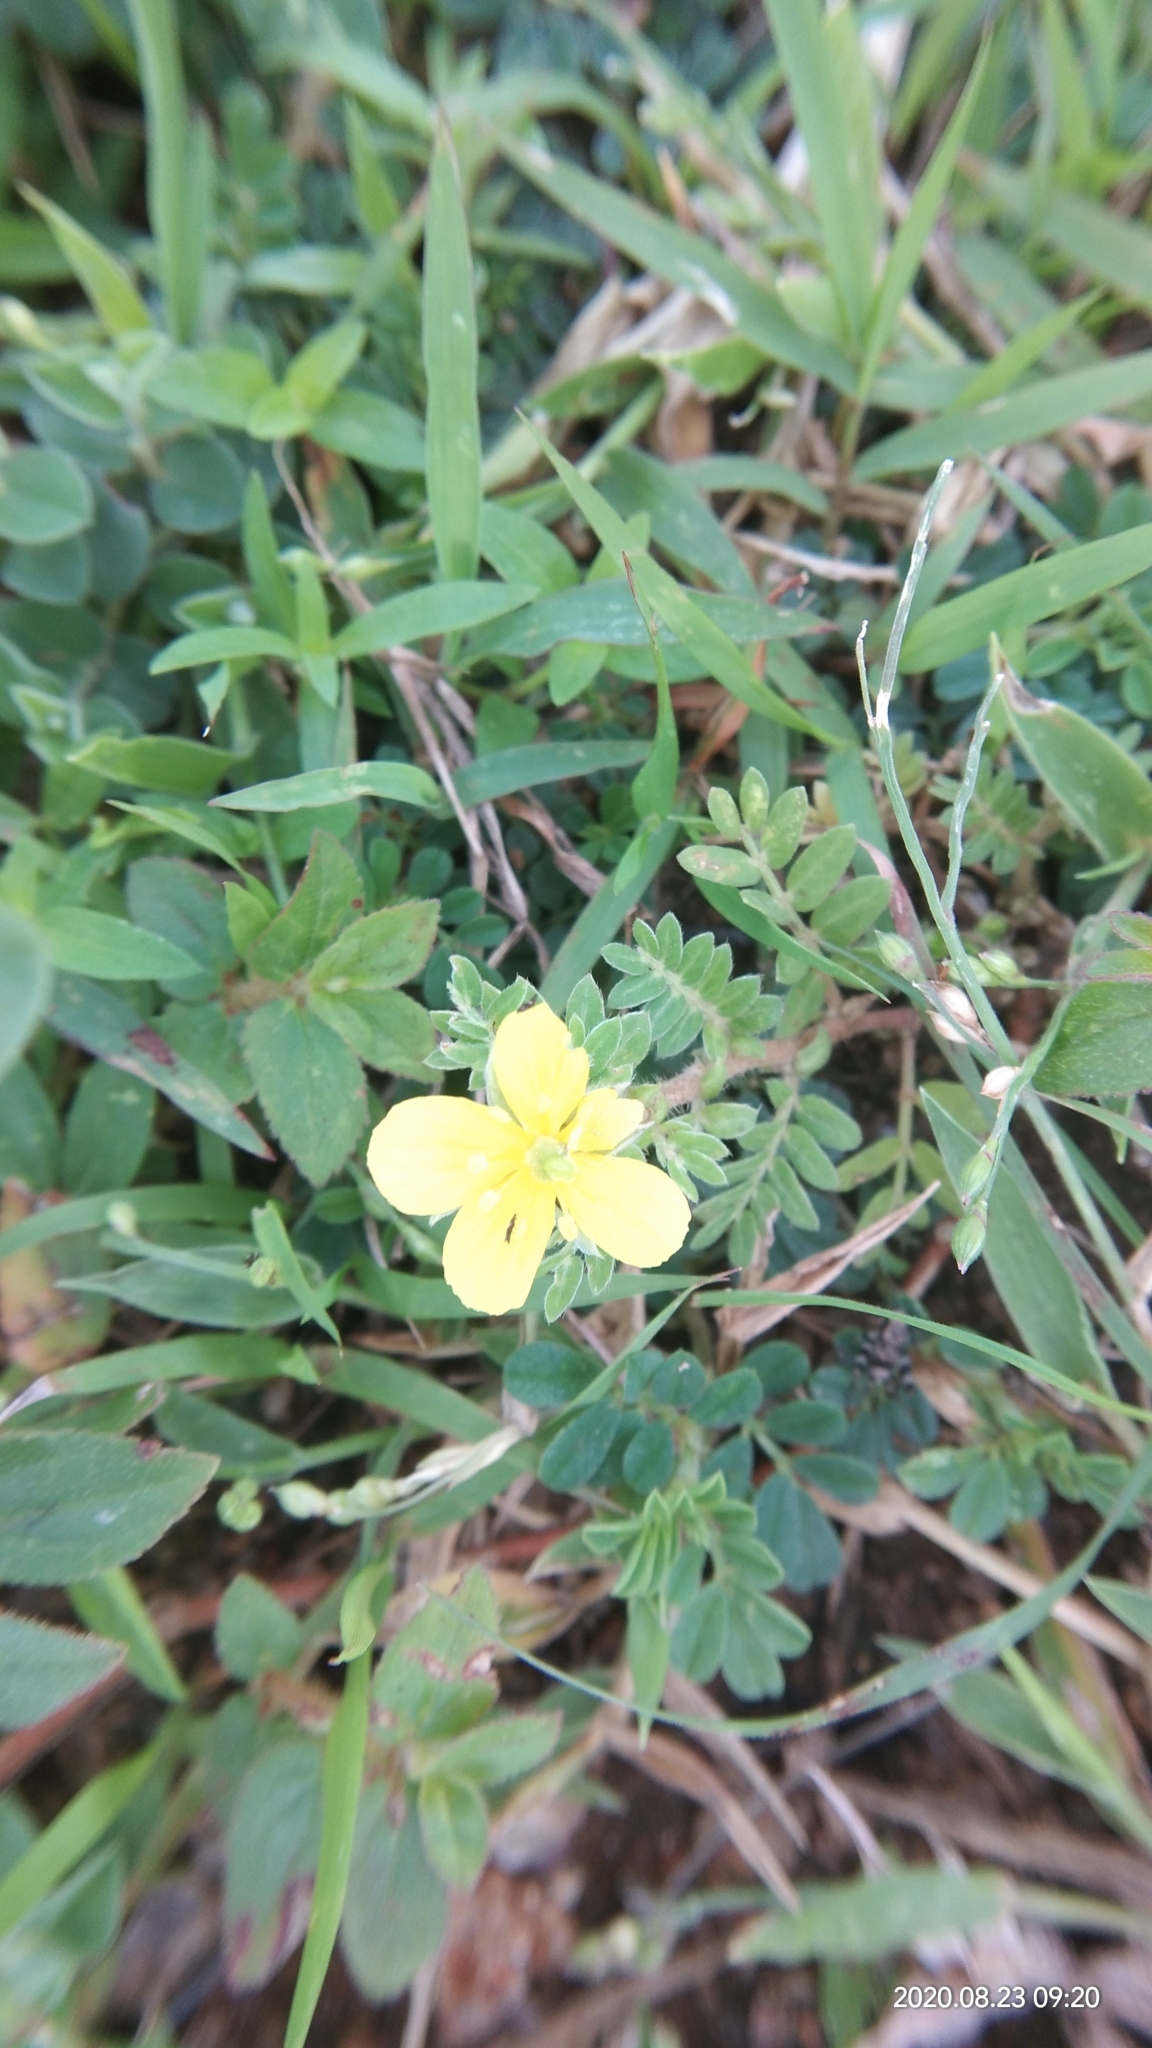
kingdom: Plantae
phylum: Tracheophyta
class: Magnoliopsida
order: Zygophyllales
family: Zygophyllaceae
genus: Tribulus
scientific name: Tribulus terrestris
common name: Puncturevine
